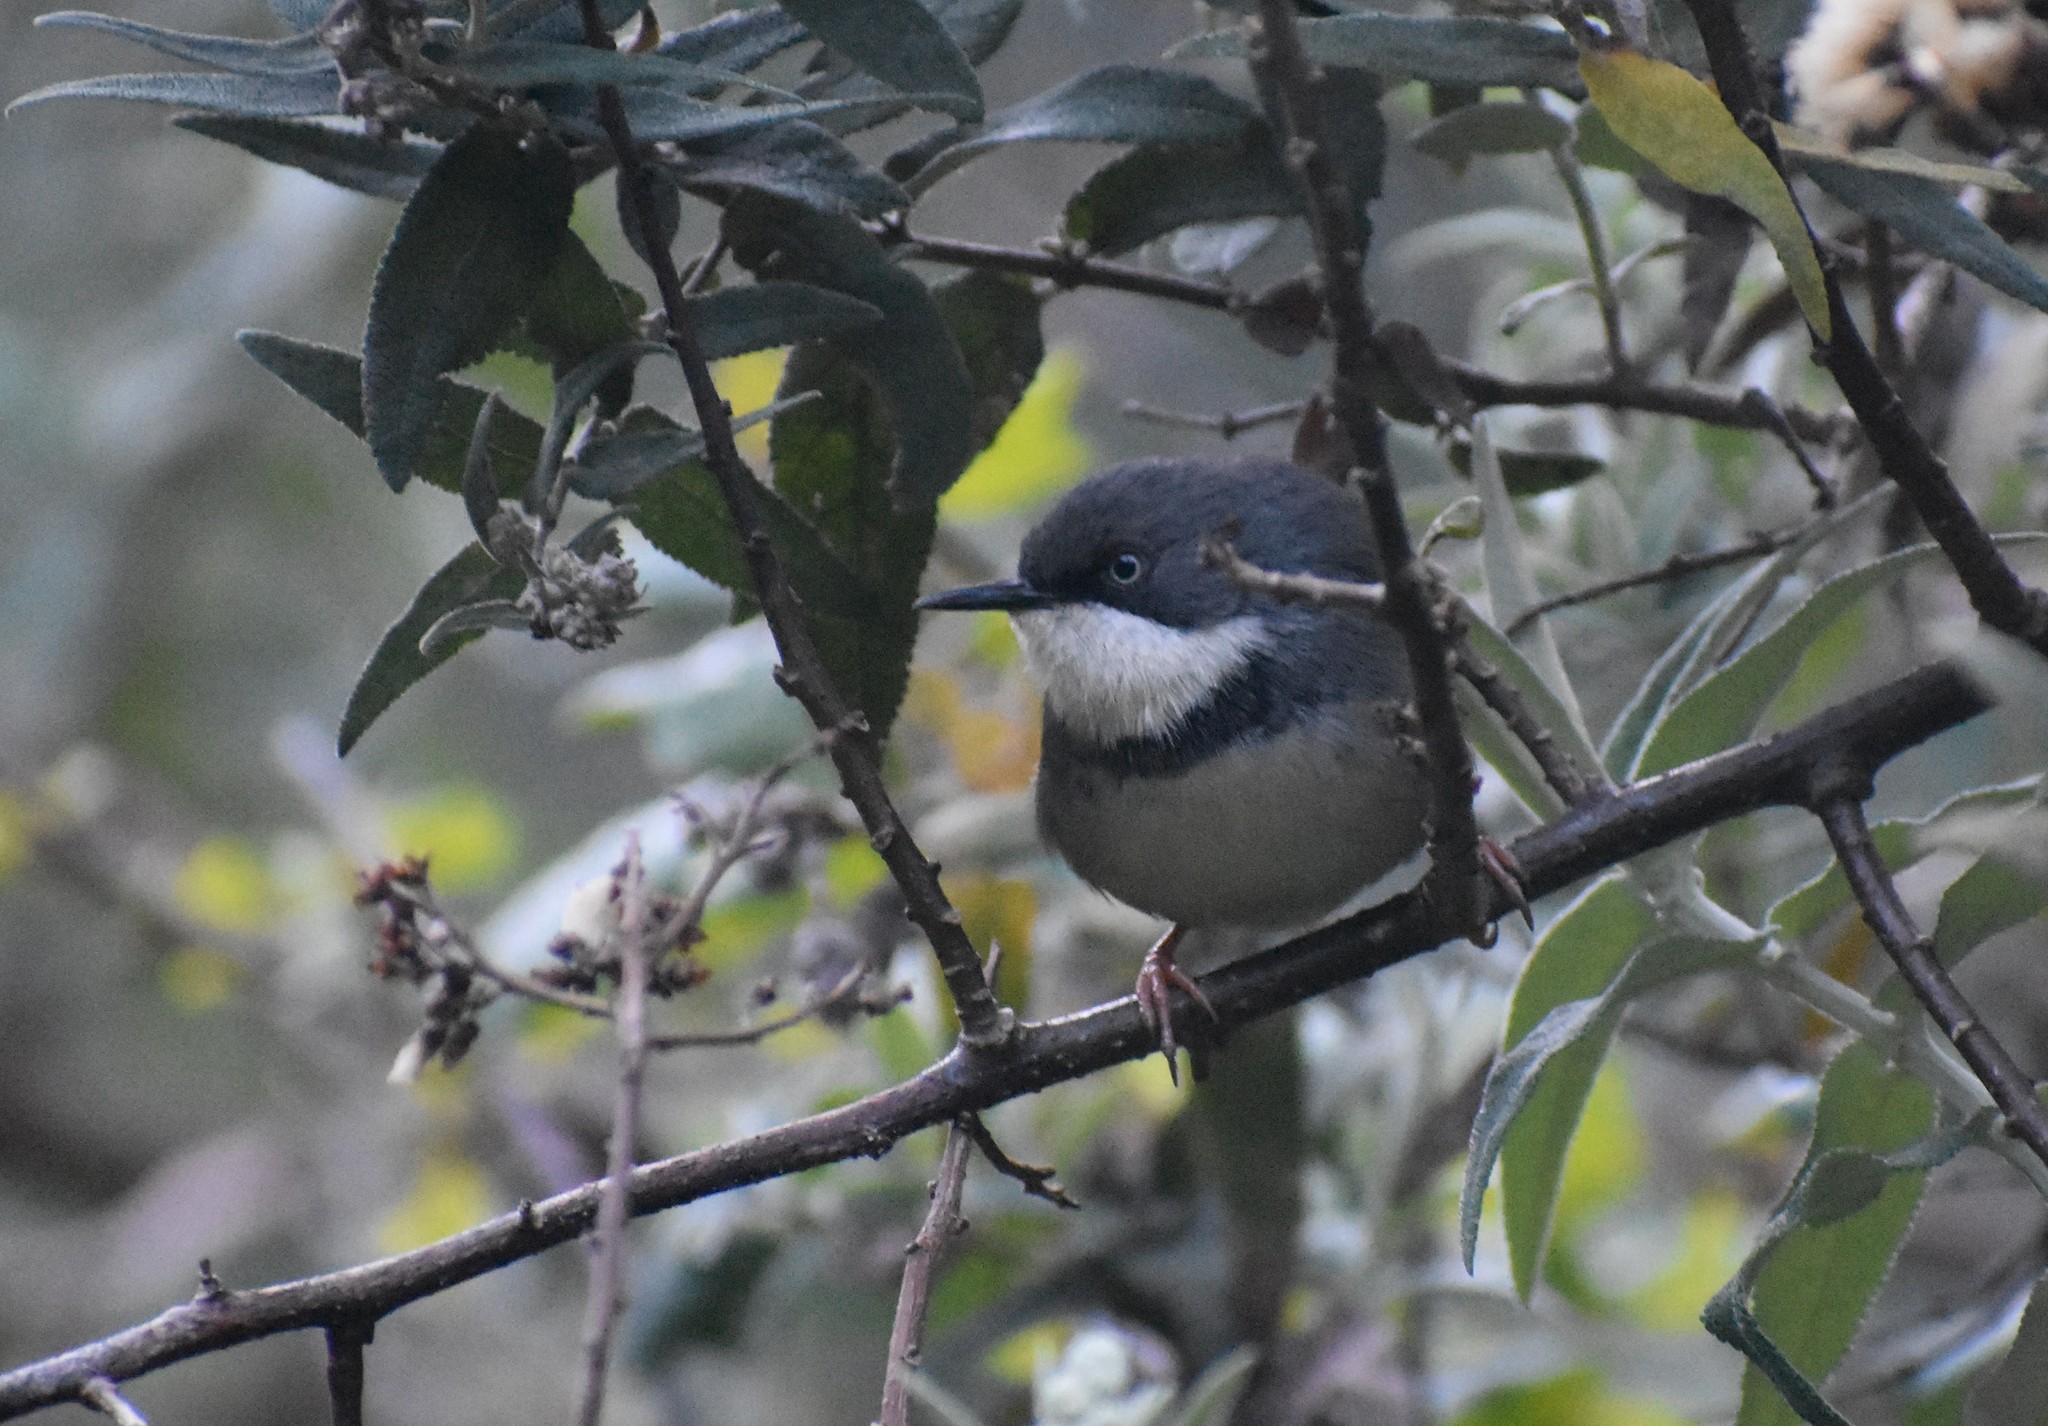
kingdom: Animalia
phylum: Chordata
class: Aves
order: Passeriformes
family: Cisticolidae
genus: Apalis
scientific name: Apalis thoracica
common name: Bar-throated apalis
